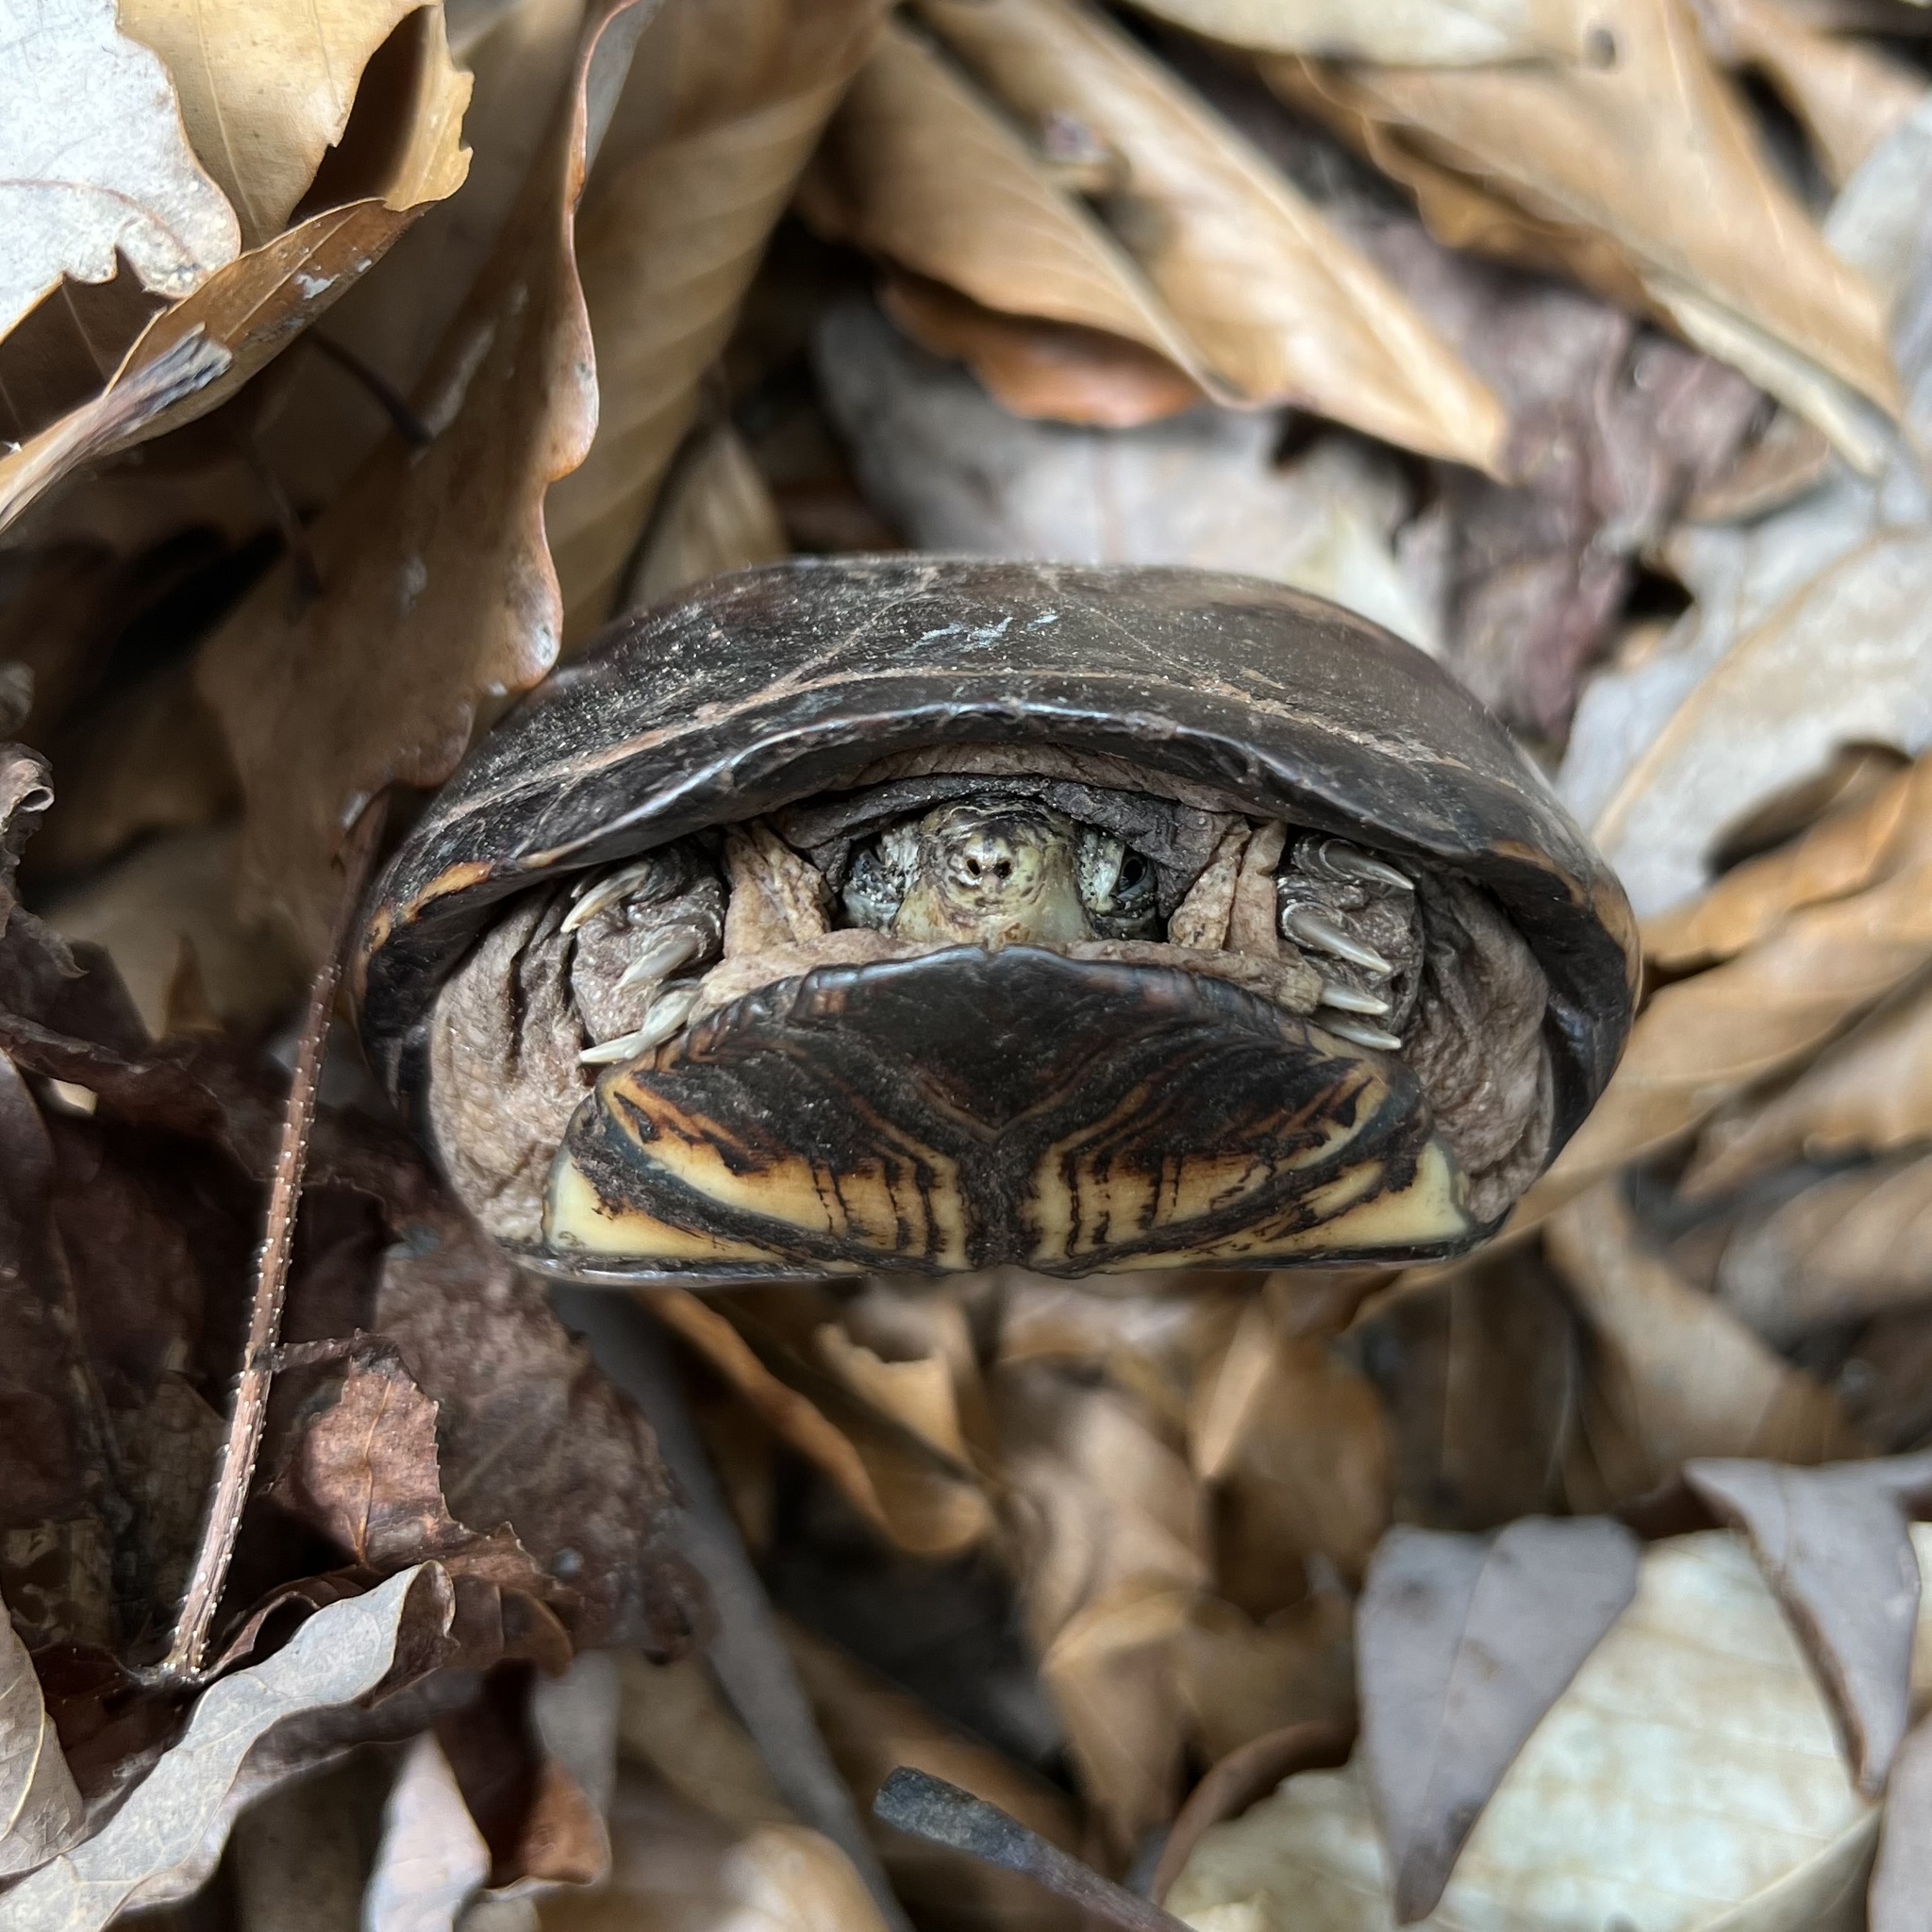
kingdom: Animalia
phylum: Chordata
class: Testudines
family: Kinosternidae
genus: Kinosternon
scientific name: Kinosternon subrubrum
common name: Eastern mud turtle
